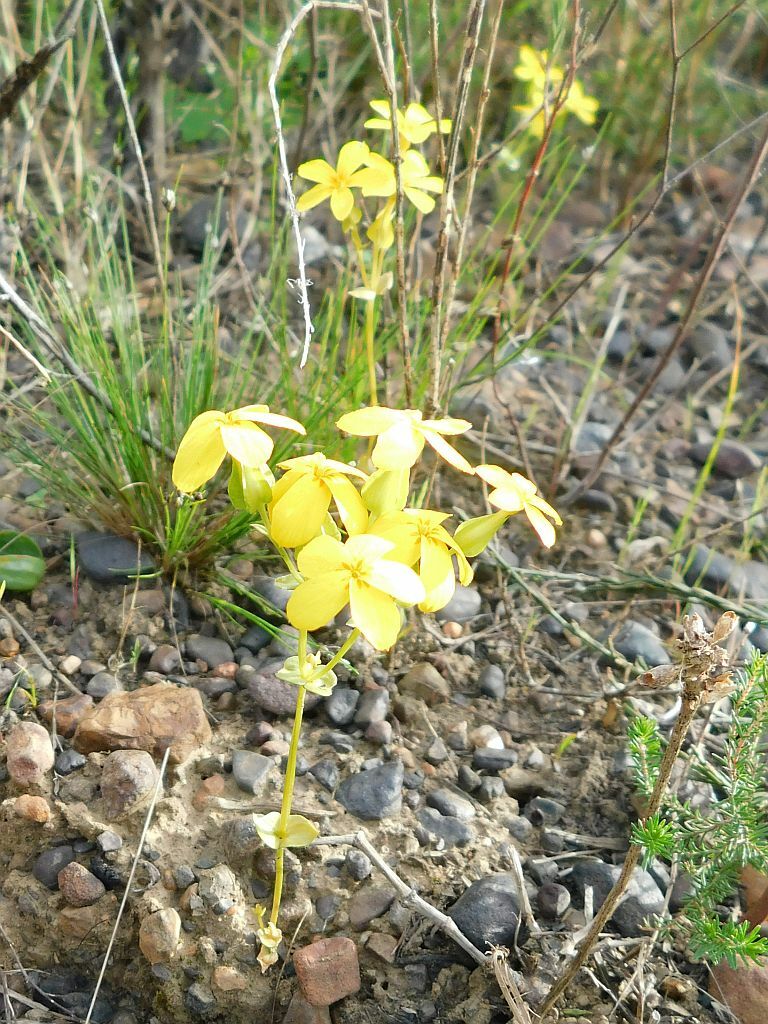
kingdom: Plantae
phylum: Tracheophyta
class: Magnoliopsida
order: Gentianales
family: Gentianaceae
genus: Sebaea
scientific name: Sebaea exacoides
